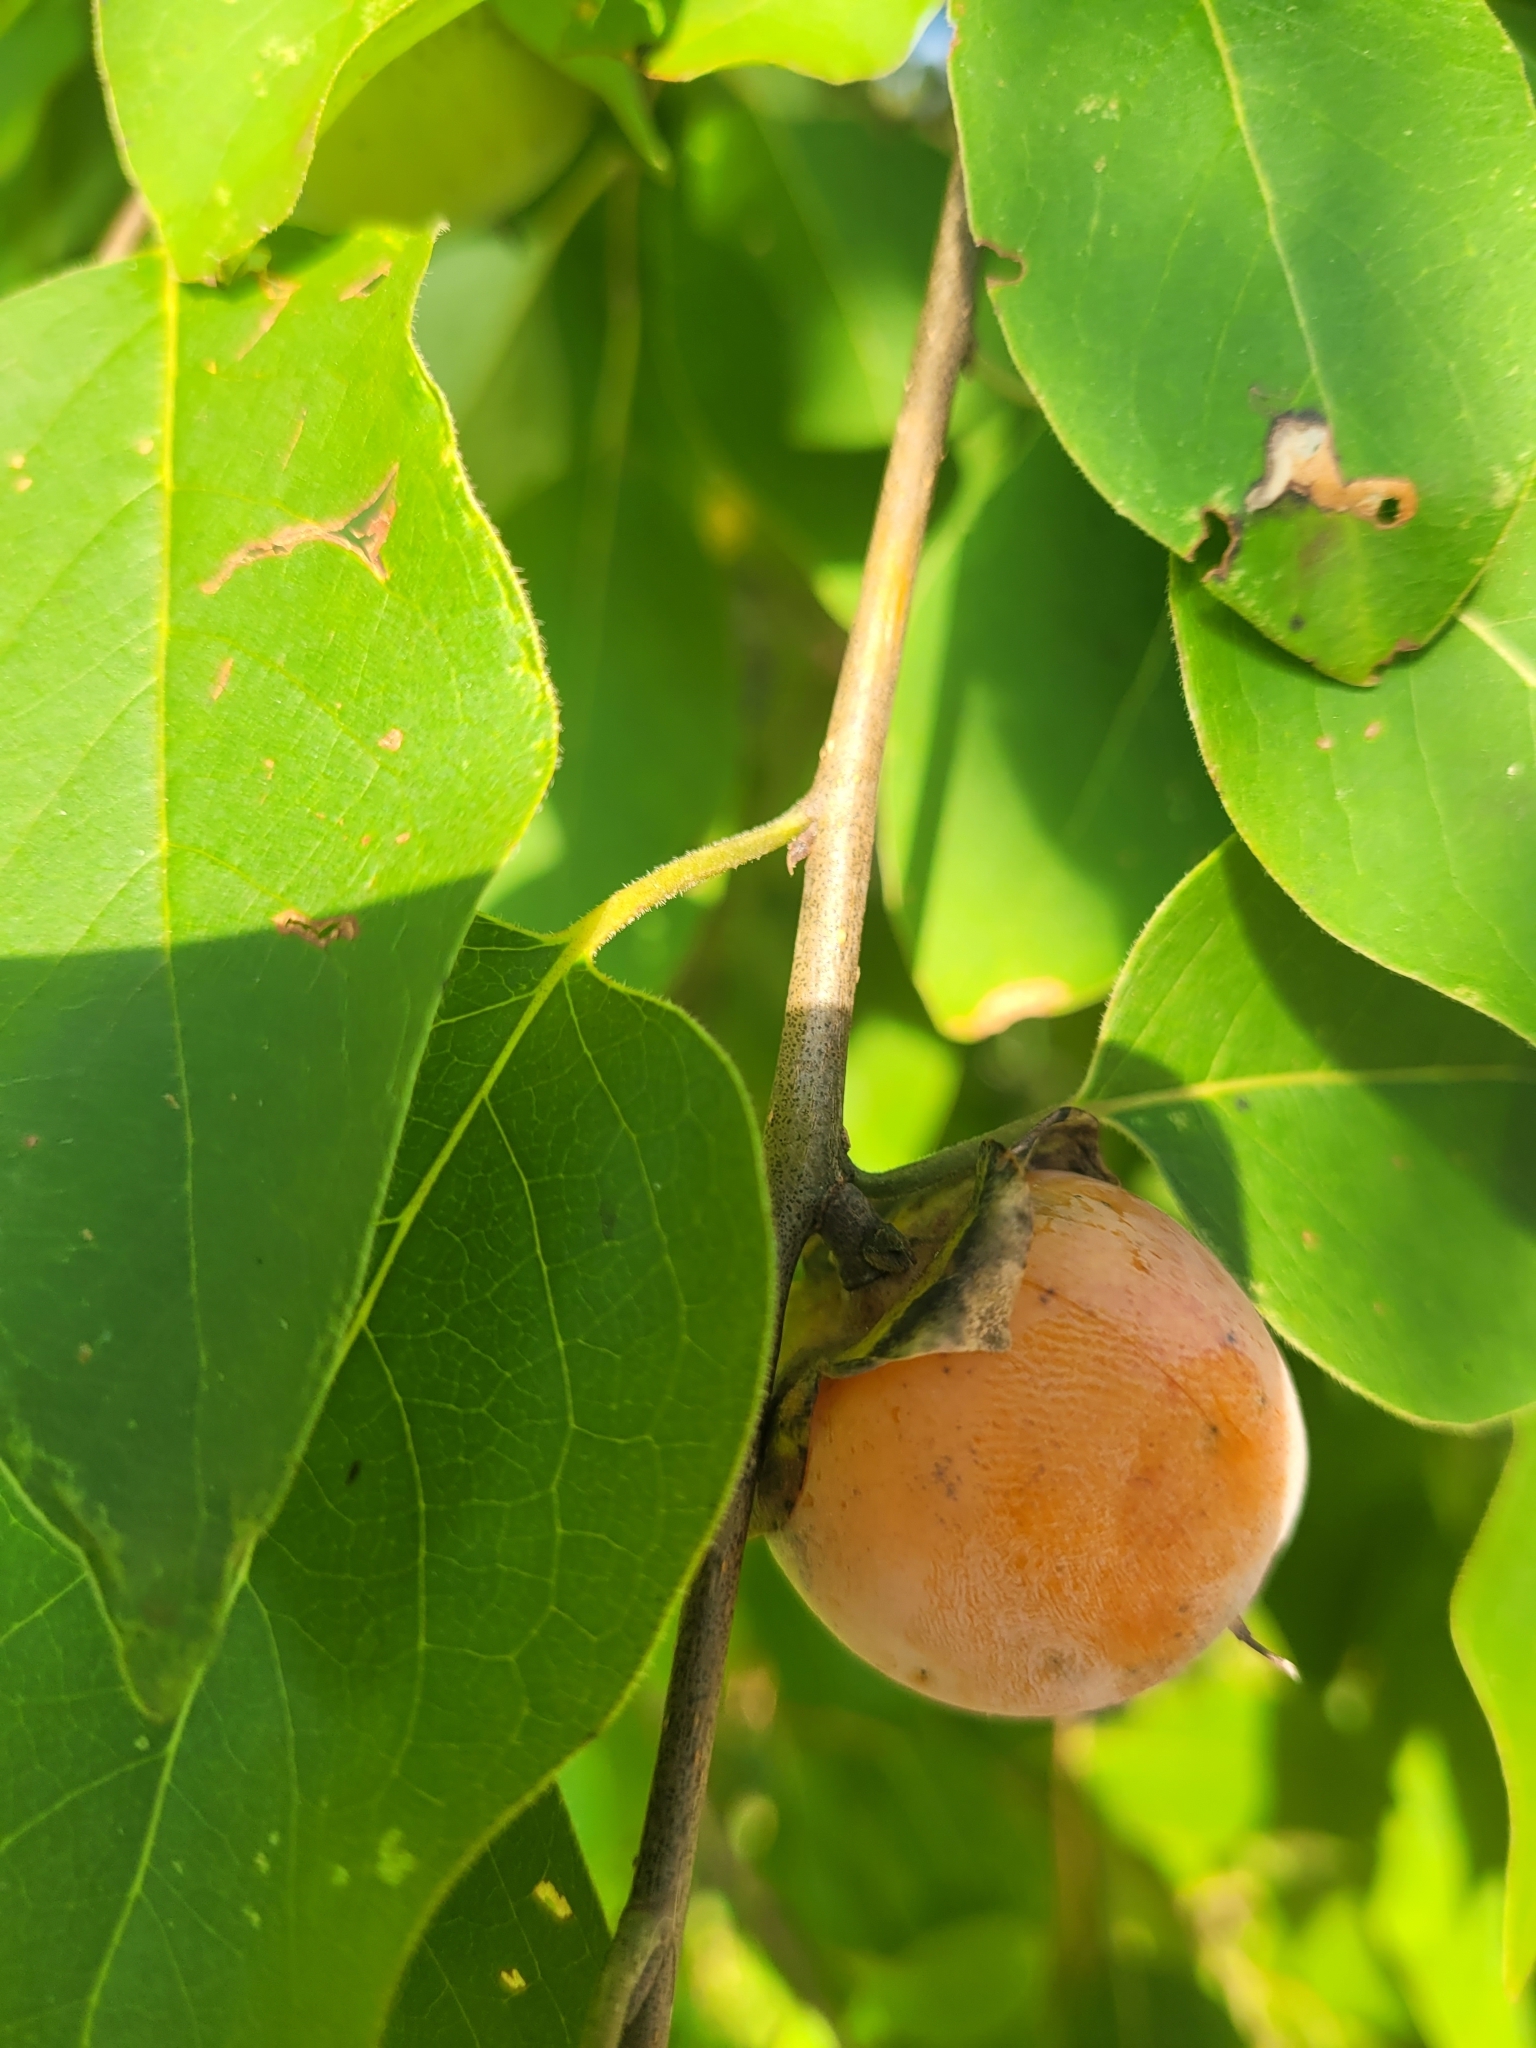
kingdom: Plantae
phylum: Tracheophyta
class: Magnoliopsida
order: Ericales
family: Ebenaceae
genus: Diospyros
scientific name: Diospyros virginiana
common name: Persimmon
